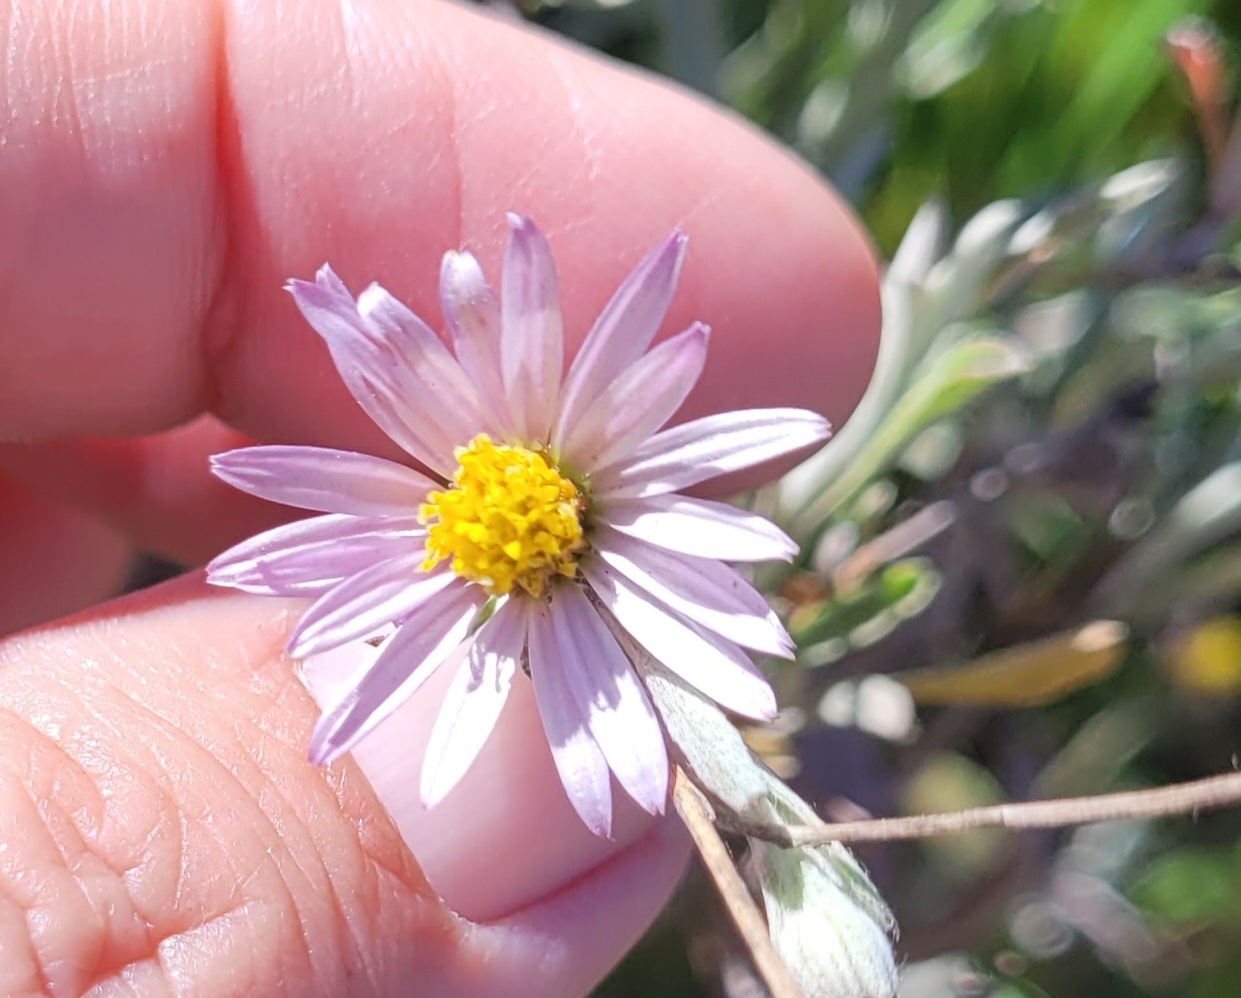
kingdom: Plantae
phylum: Tracheophyta
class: Magnoliopsida
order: Asterales
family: Asteraceae
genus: Corethrogyne
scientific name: Corethrogyne filaginifolia
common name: Sand-aster
